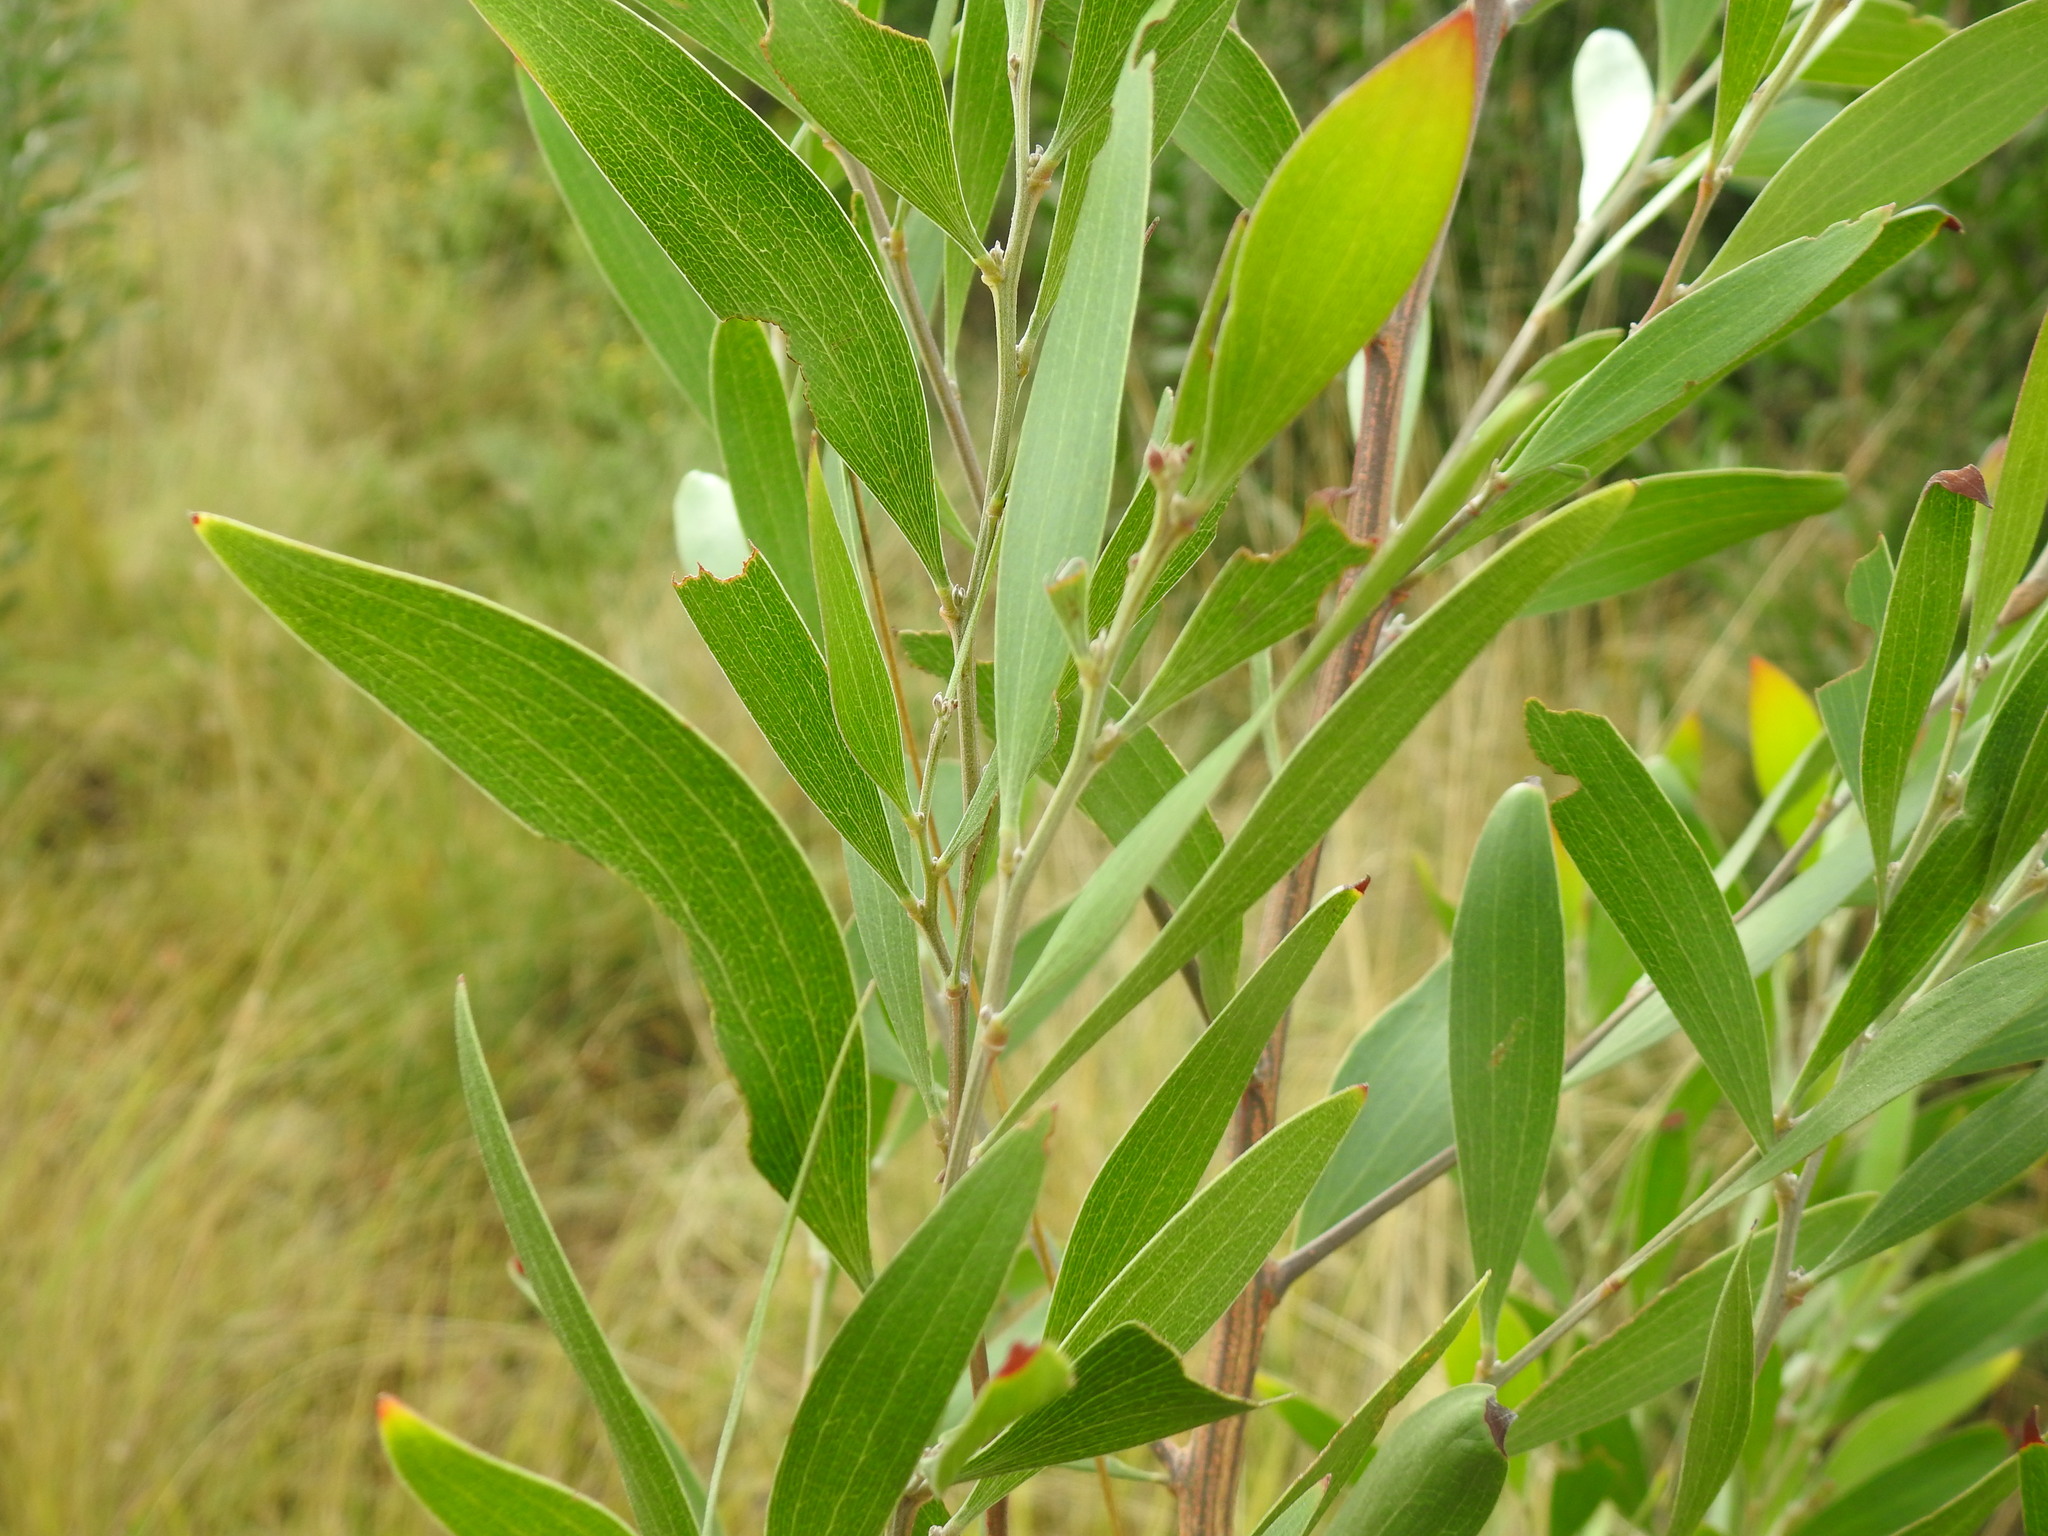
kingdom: Plantae
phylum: Tracheophyta
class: Magnoliopsida
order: Fabales
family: Fabaceae
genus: Acacia
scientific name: Acacia melanoxylon
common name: Blackwood
